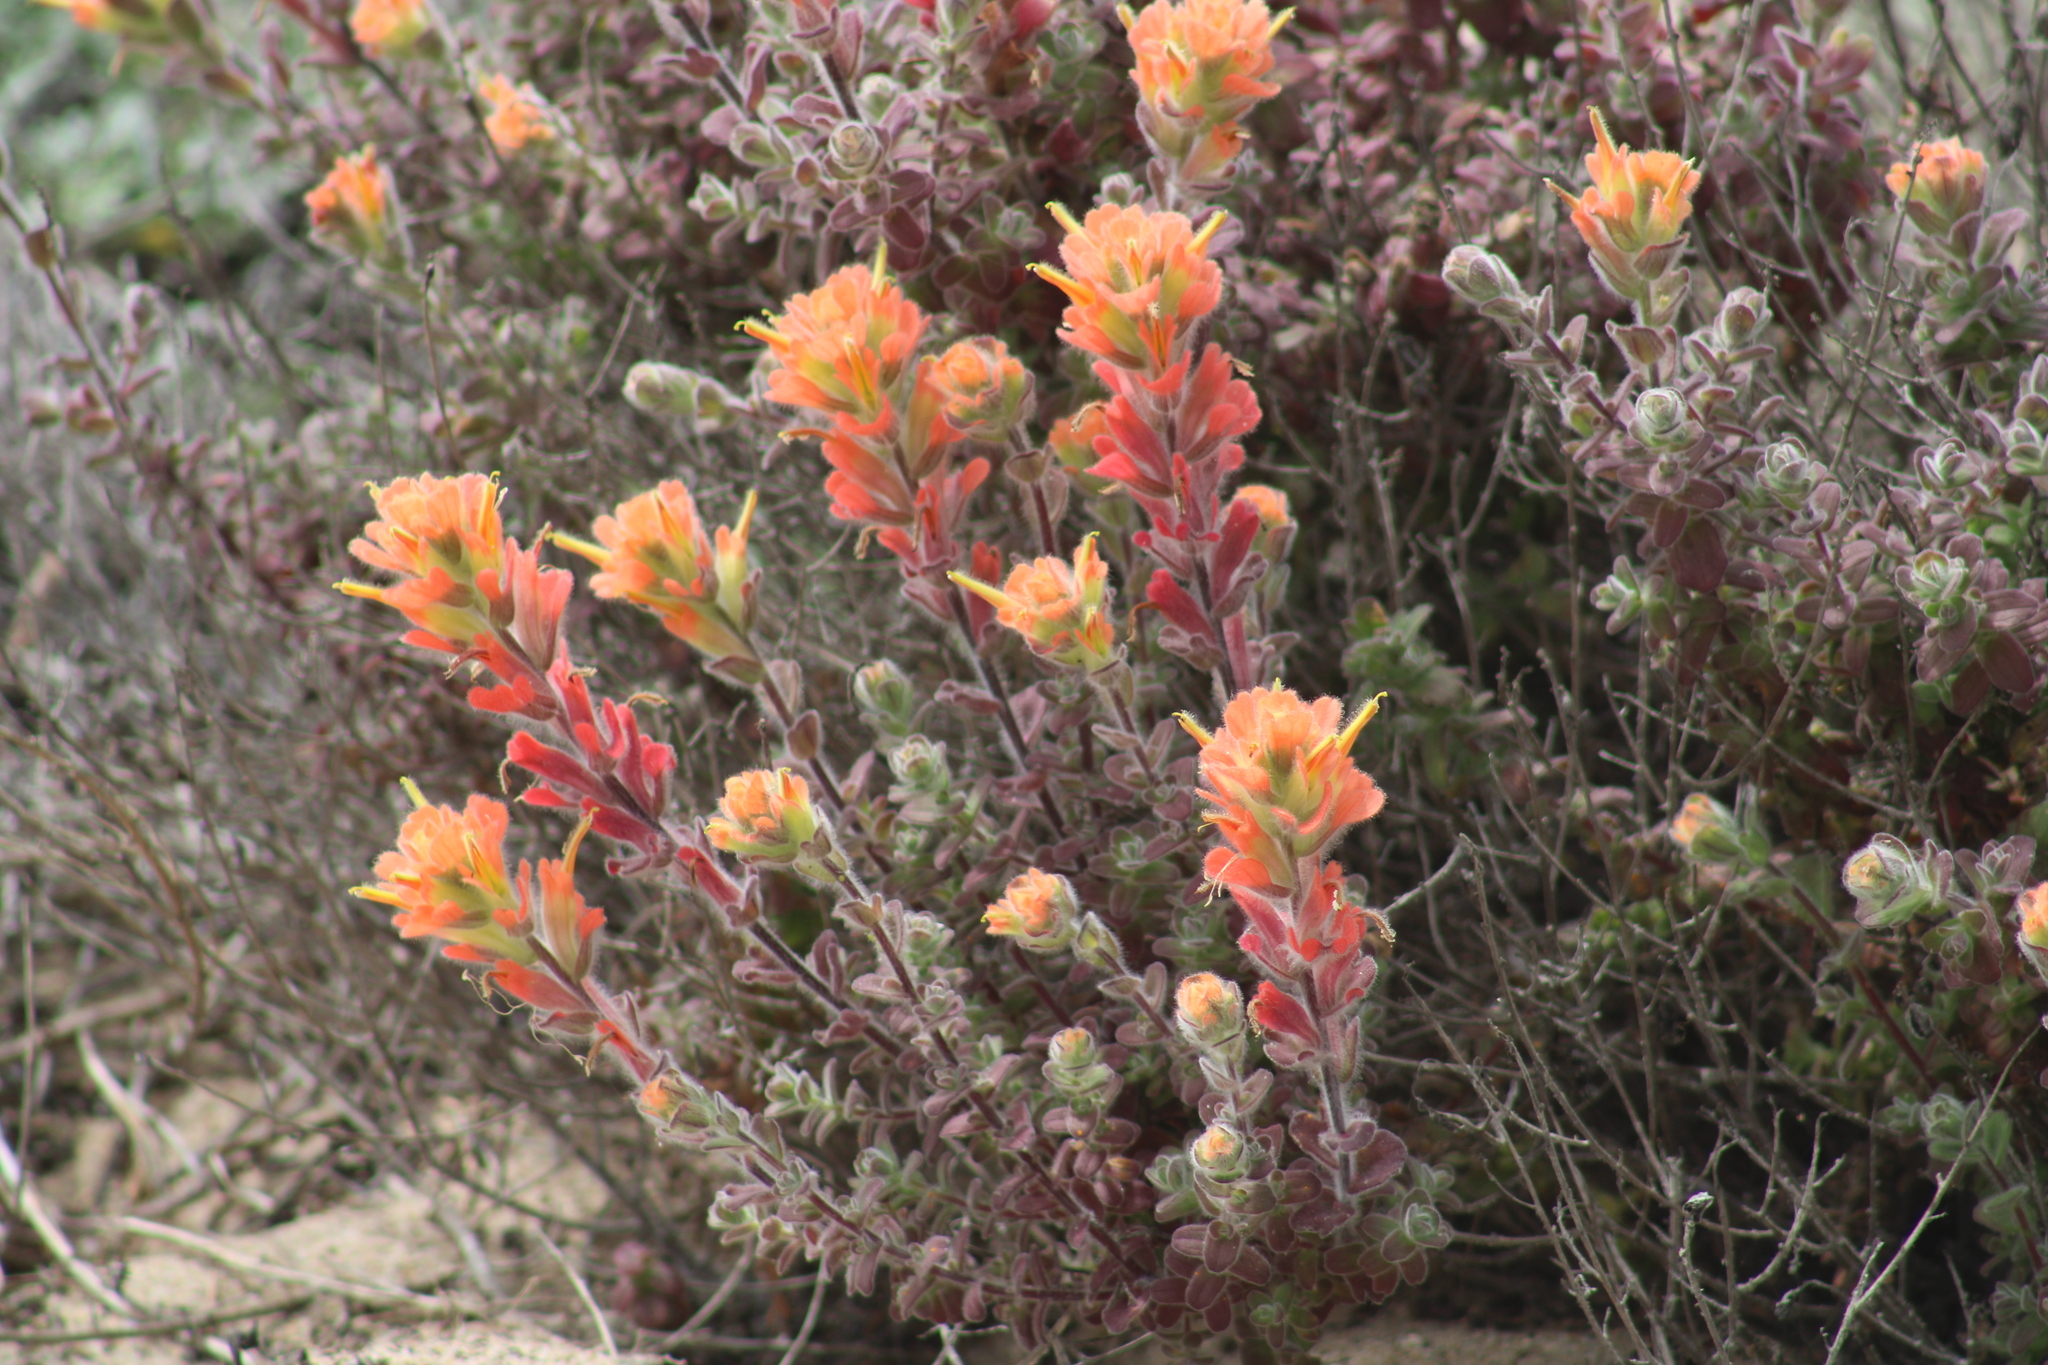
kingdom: Plantae
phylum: Tracheophyta
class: Magnoliopsida
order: Lamiales
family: Orobanchaceae
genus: Castilleja
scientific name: Castilleja latifolia
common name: Monterey indian paintbrush
